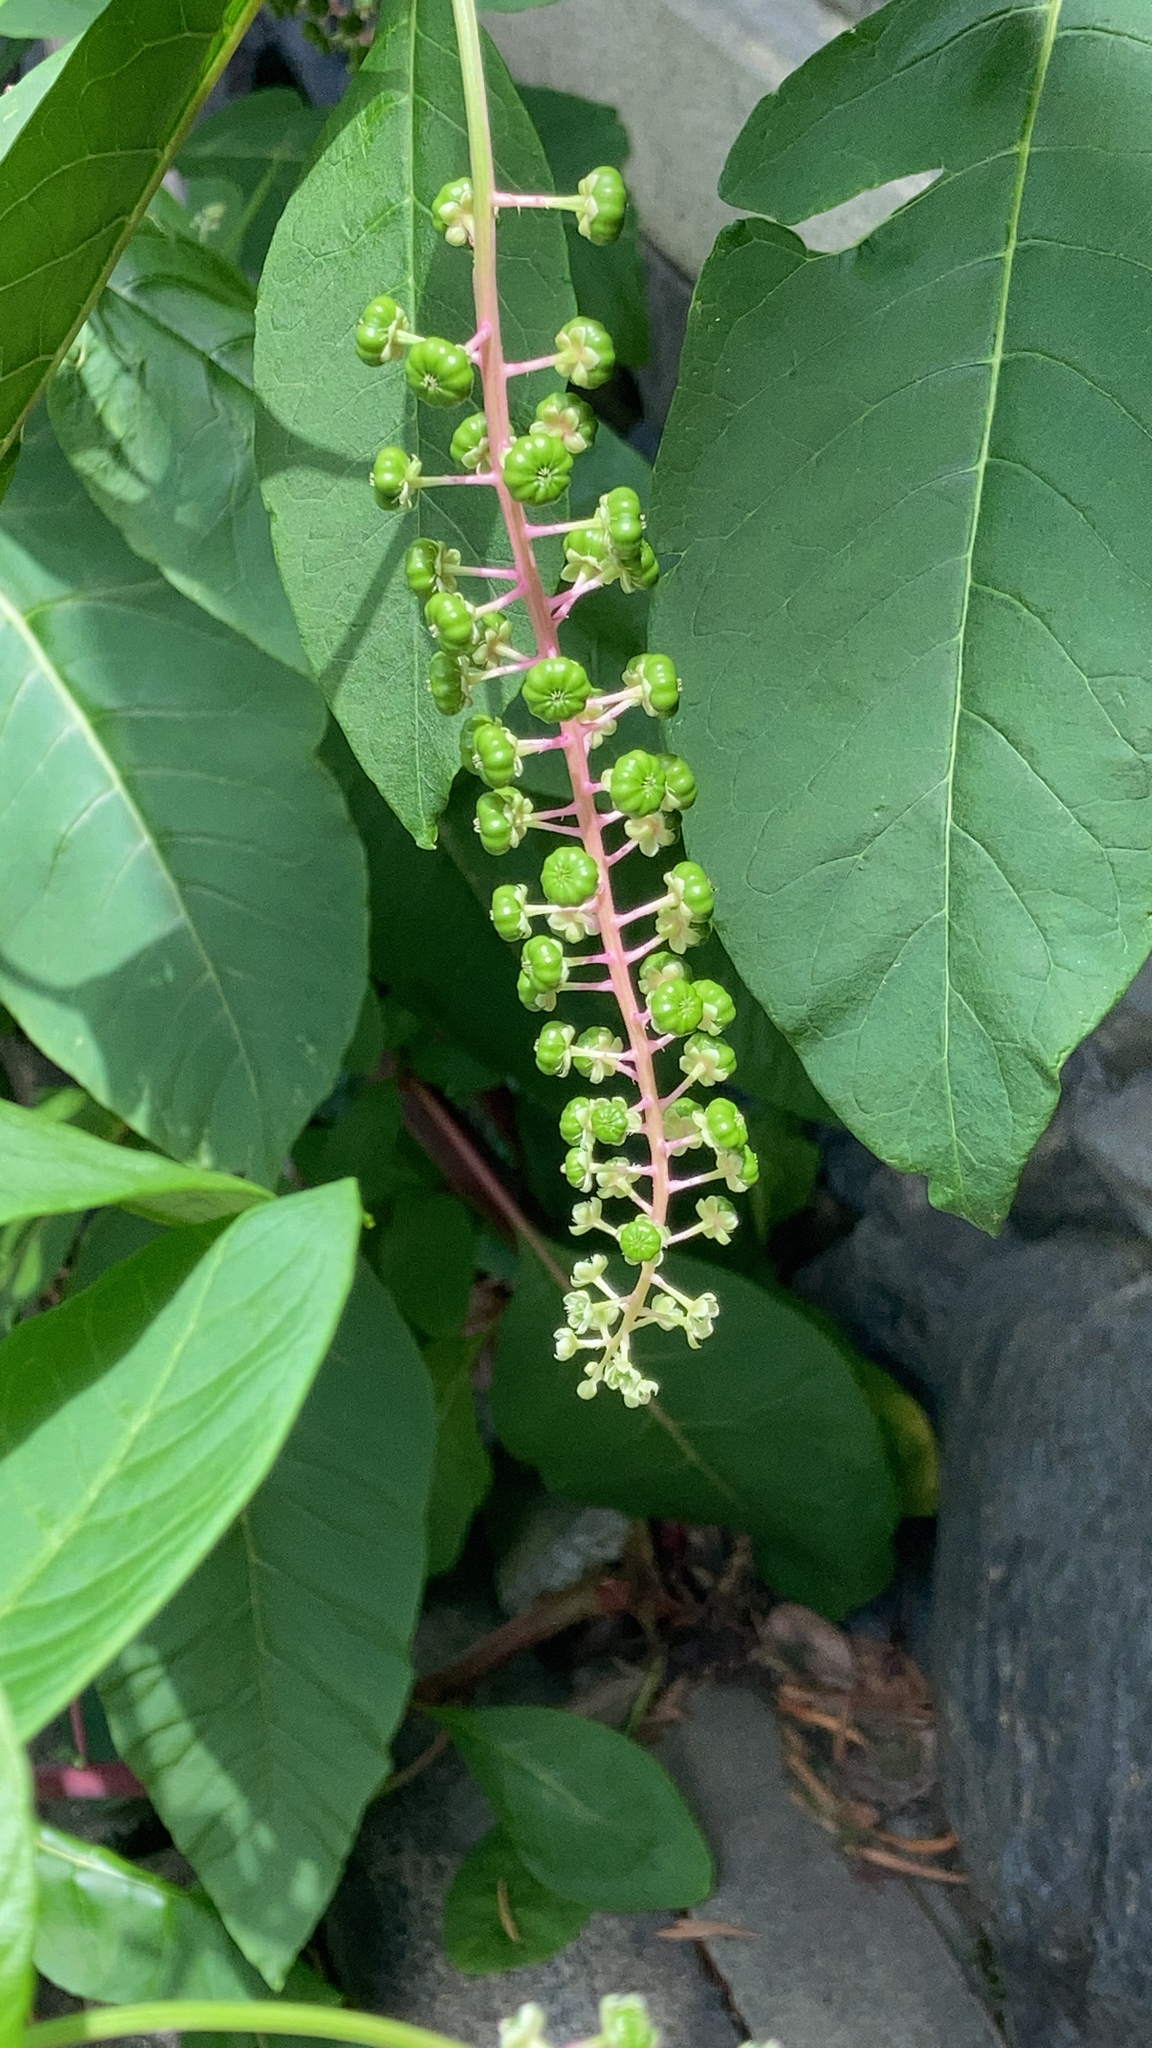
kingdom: Plantae
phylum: Tracheophyta
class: Magnoliopsida
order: Caryophyllales
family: Phytolaccaceae
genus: Phytolacca
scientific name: Phytolacca americana
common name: American pokeweed
